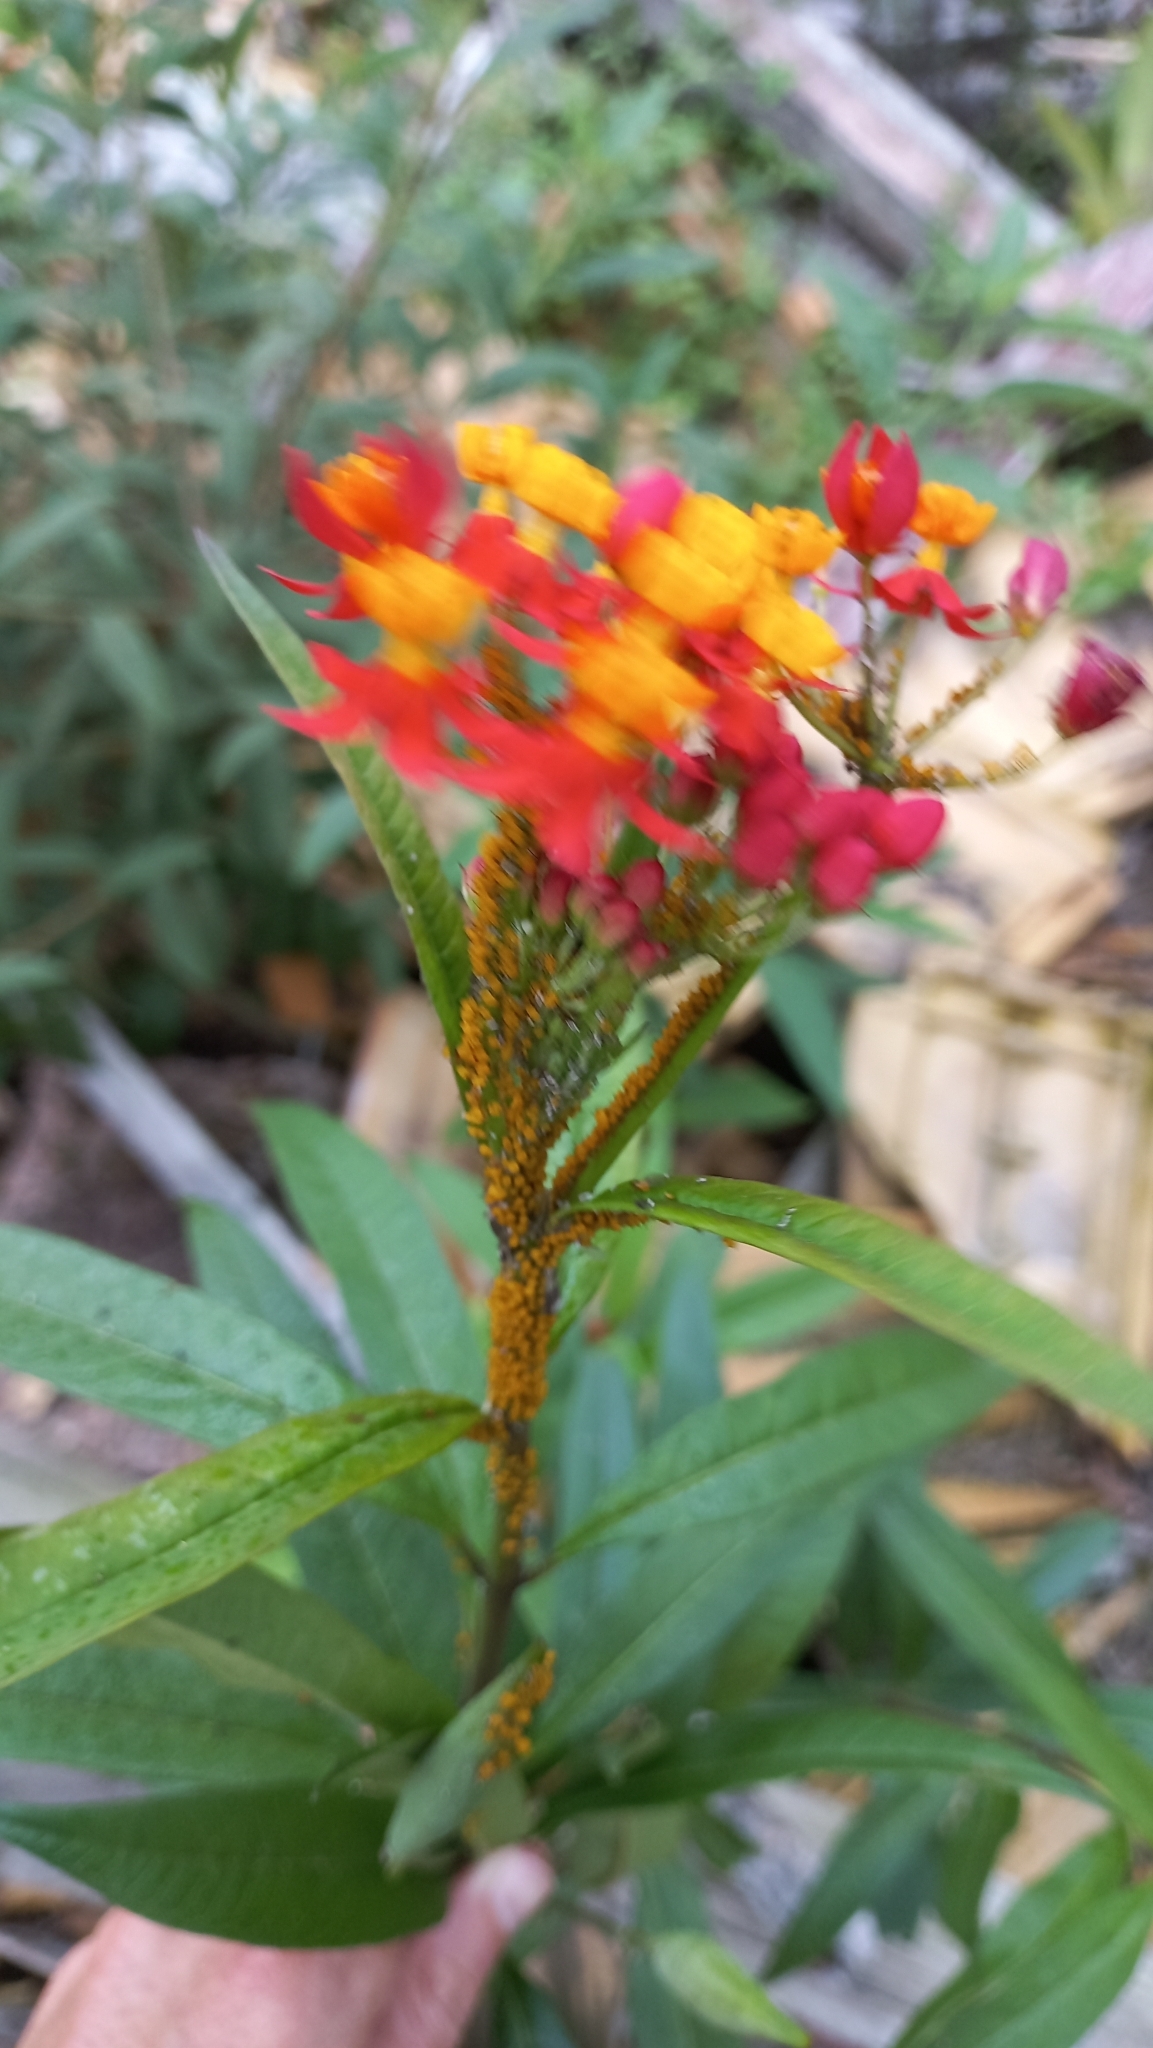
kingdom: Plantae
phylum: Tracheophyta
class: Magnoliopsida
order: Gentianales
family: Apocynaceae
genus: Asclepias
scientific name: Asclepias curassavica
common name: Bloodflower
